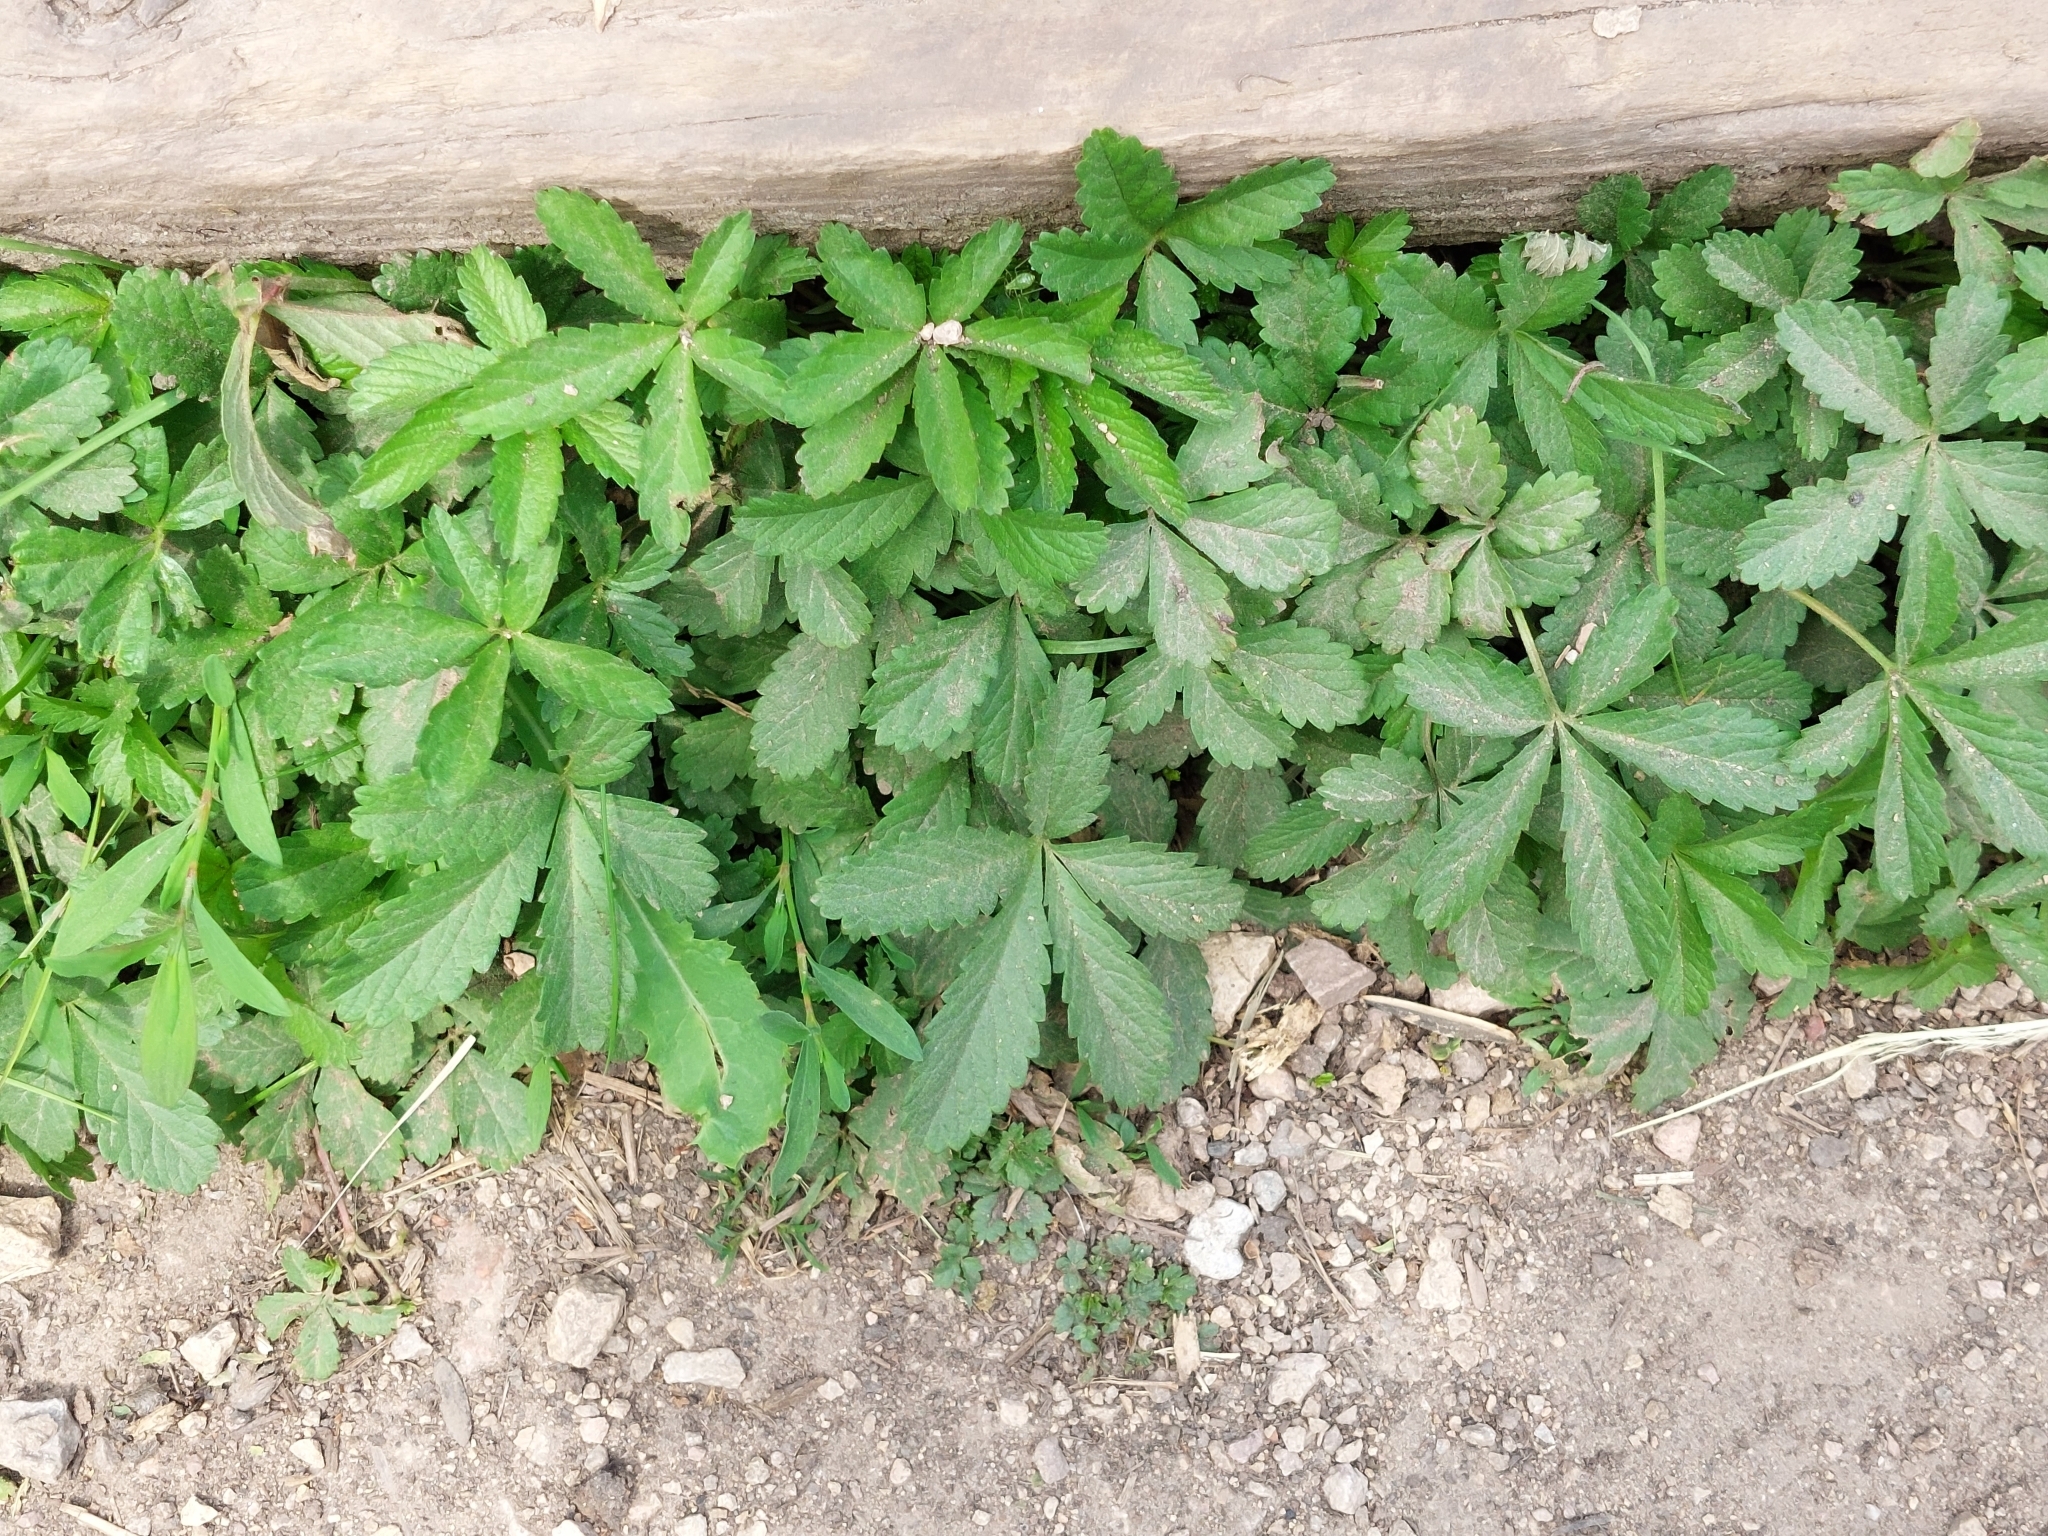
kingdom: Plantae
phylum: Tracheophyta
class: Magnoliopsida
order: Rosales
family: Rosaceae
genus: Potentilla
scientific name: Potentilla reptans
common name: Creeping cinquefoil
